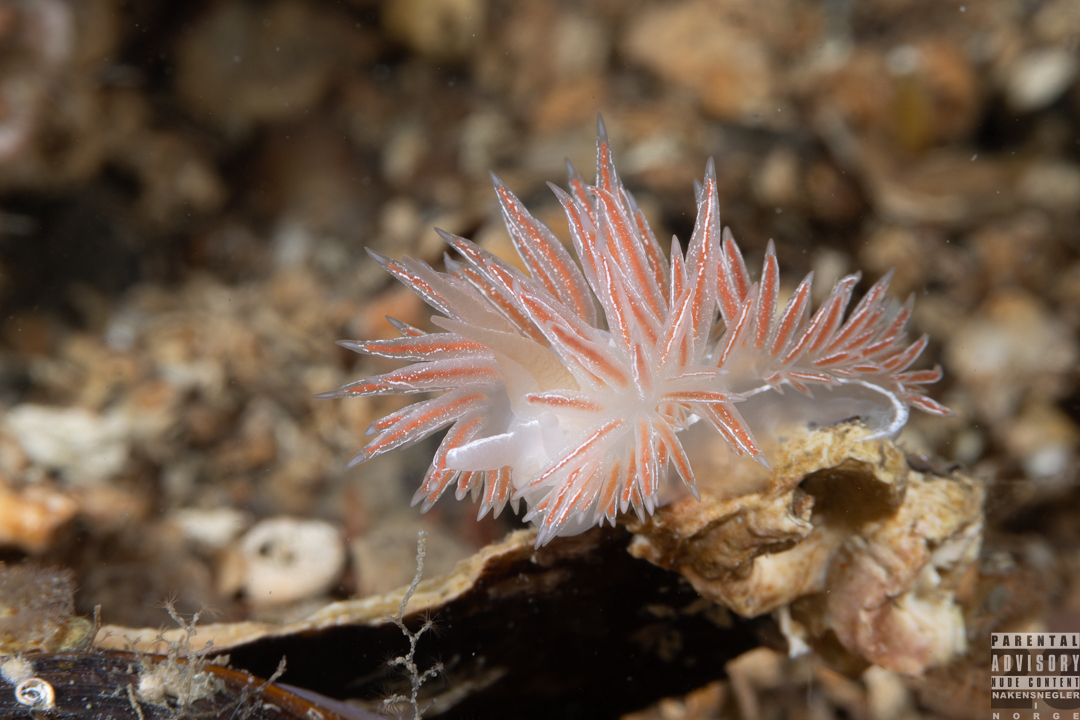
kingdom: Animalia
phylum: Mollusca
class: Gastropoda
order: Nudibranchia
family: Coryphellidae
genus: Coryphella
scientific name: Coryphella chriskaugei
